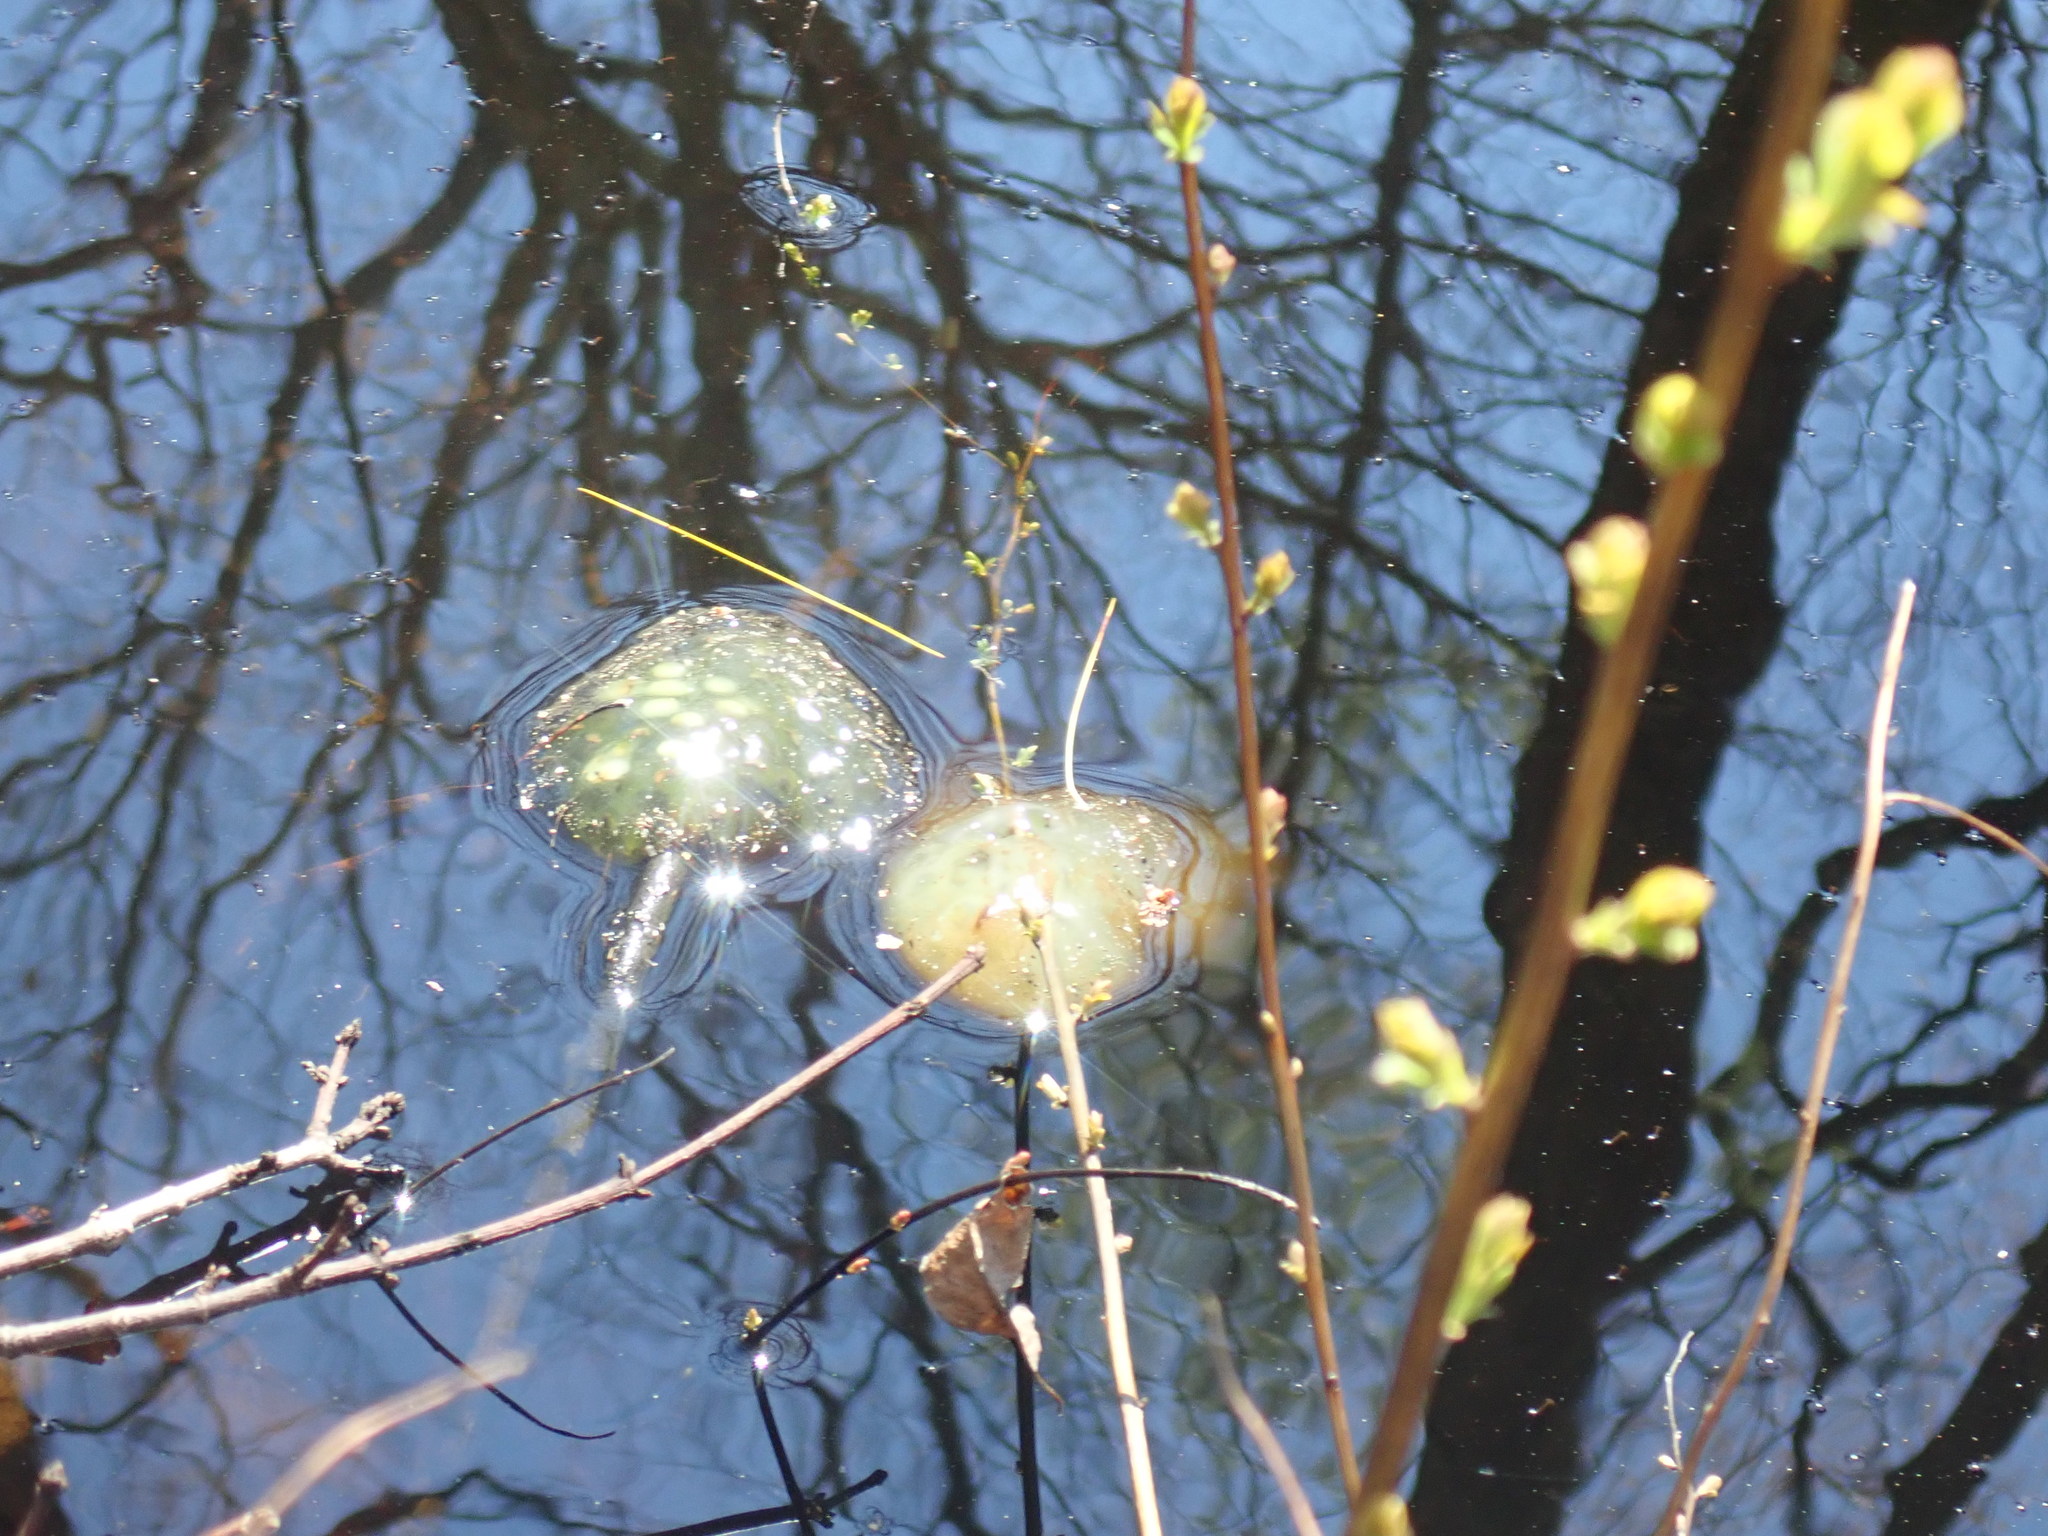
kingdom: Animalia
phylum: Chordata
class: Amphibia
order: Caudata
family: Ambystomatidae
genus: Ambystoma
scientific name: Ambystoma maculatum
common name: Spotted salamander
